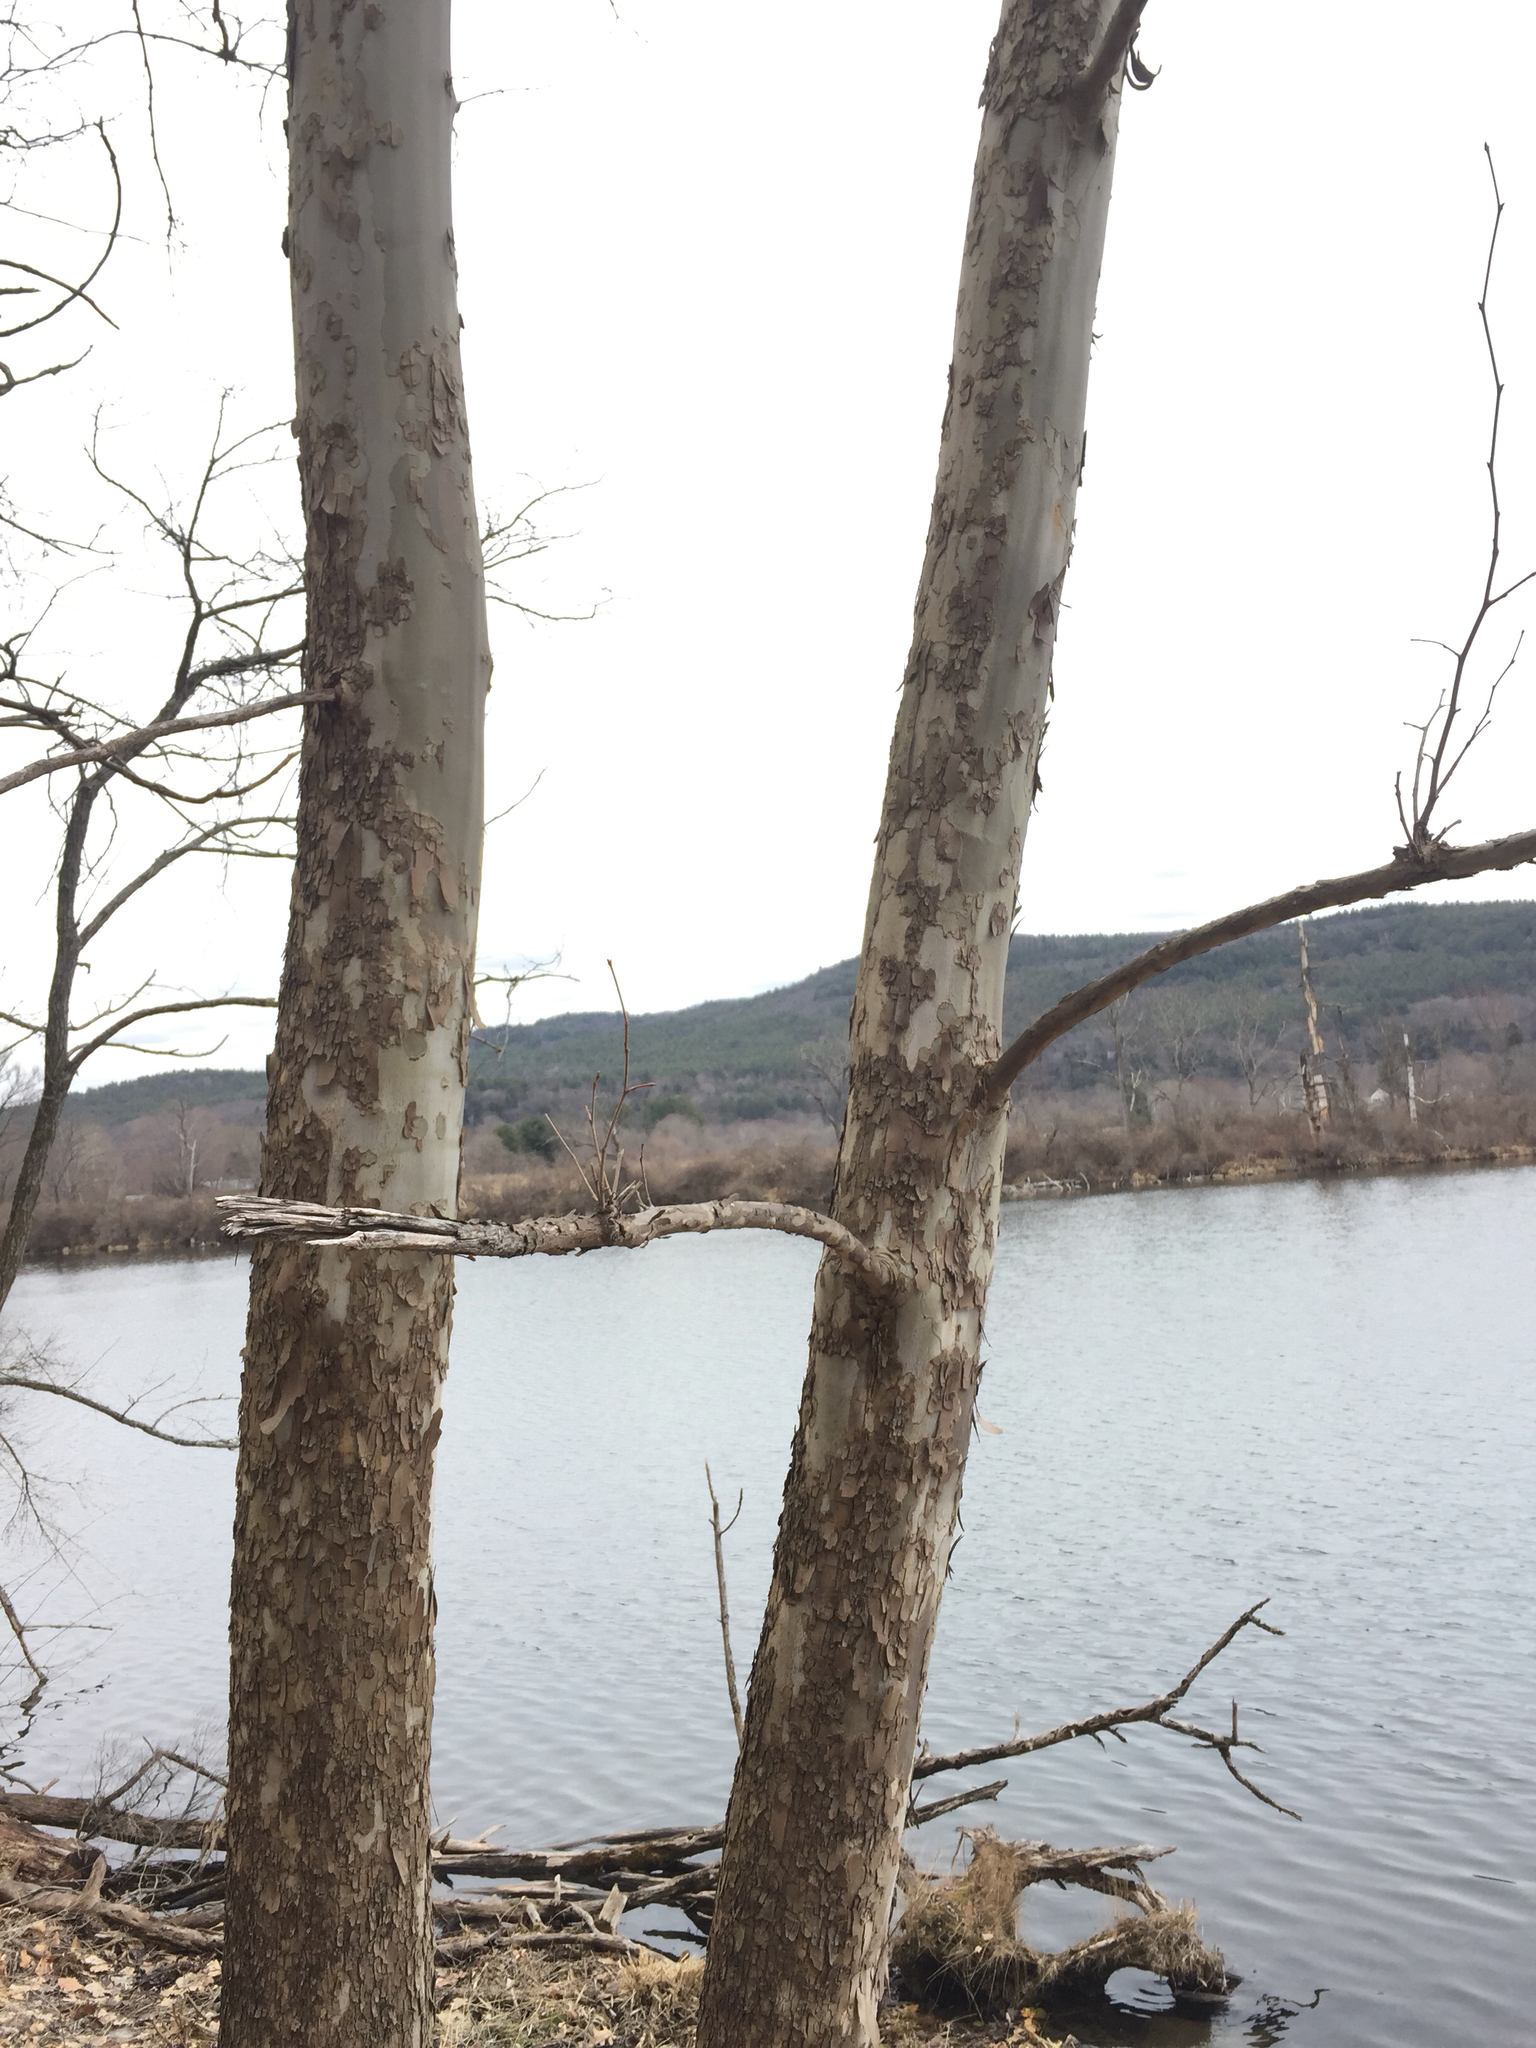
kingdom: Plantae
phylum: Tracheophyta
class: Magnoliopsida
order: Proteales
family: Platanaceae
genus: Platanus
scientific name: Platanus occidentalis
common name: American sycamore
